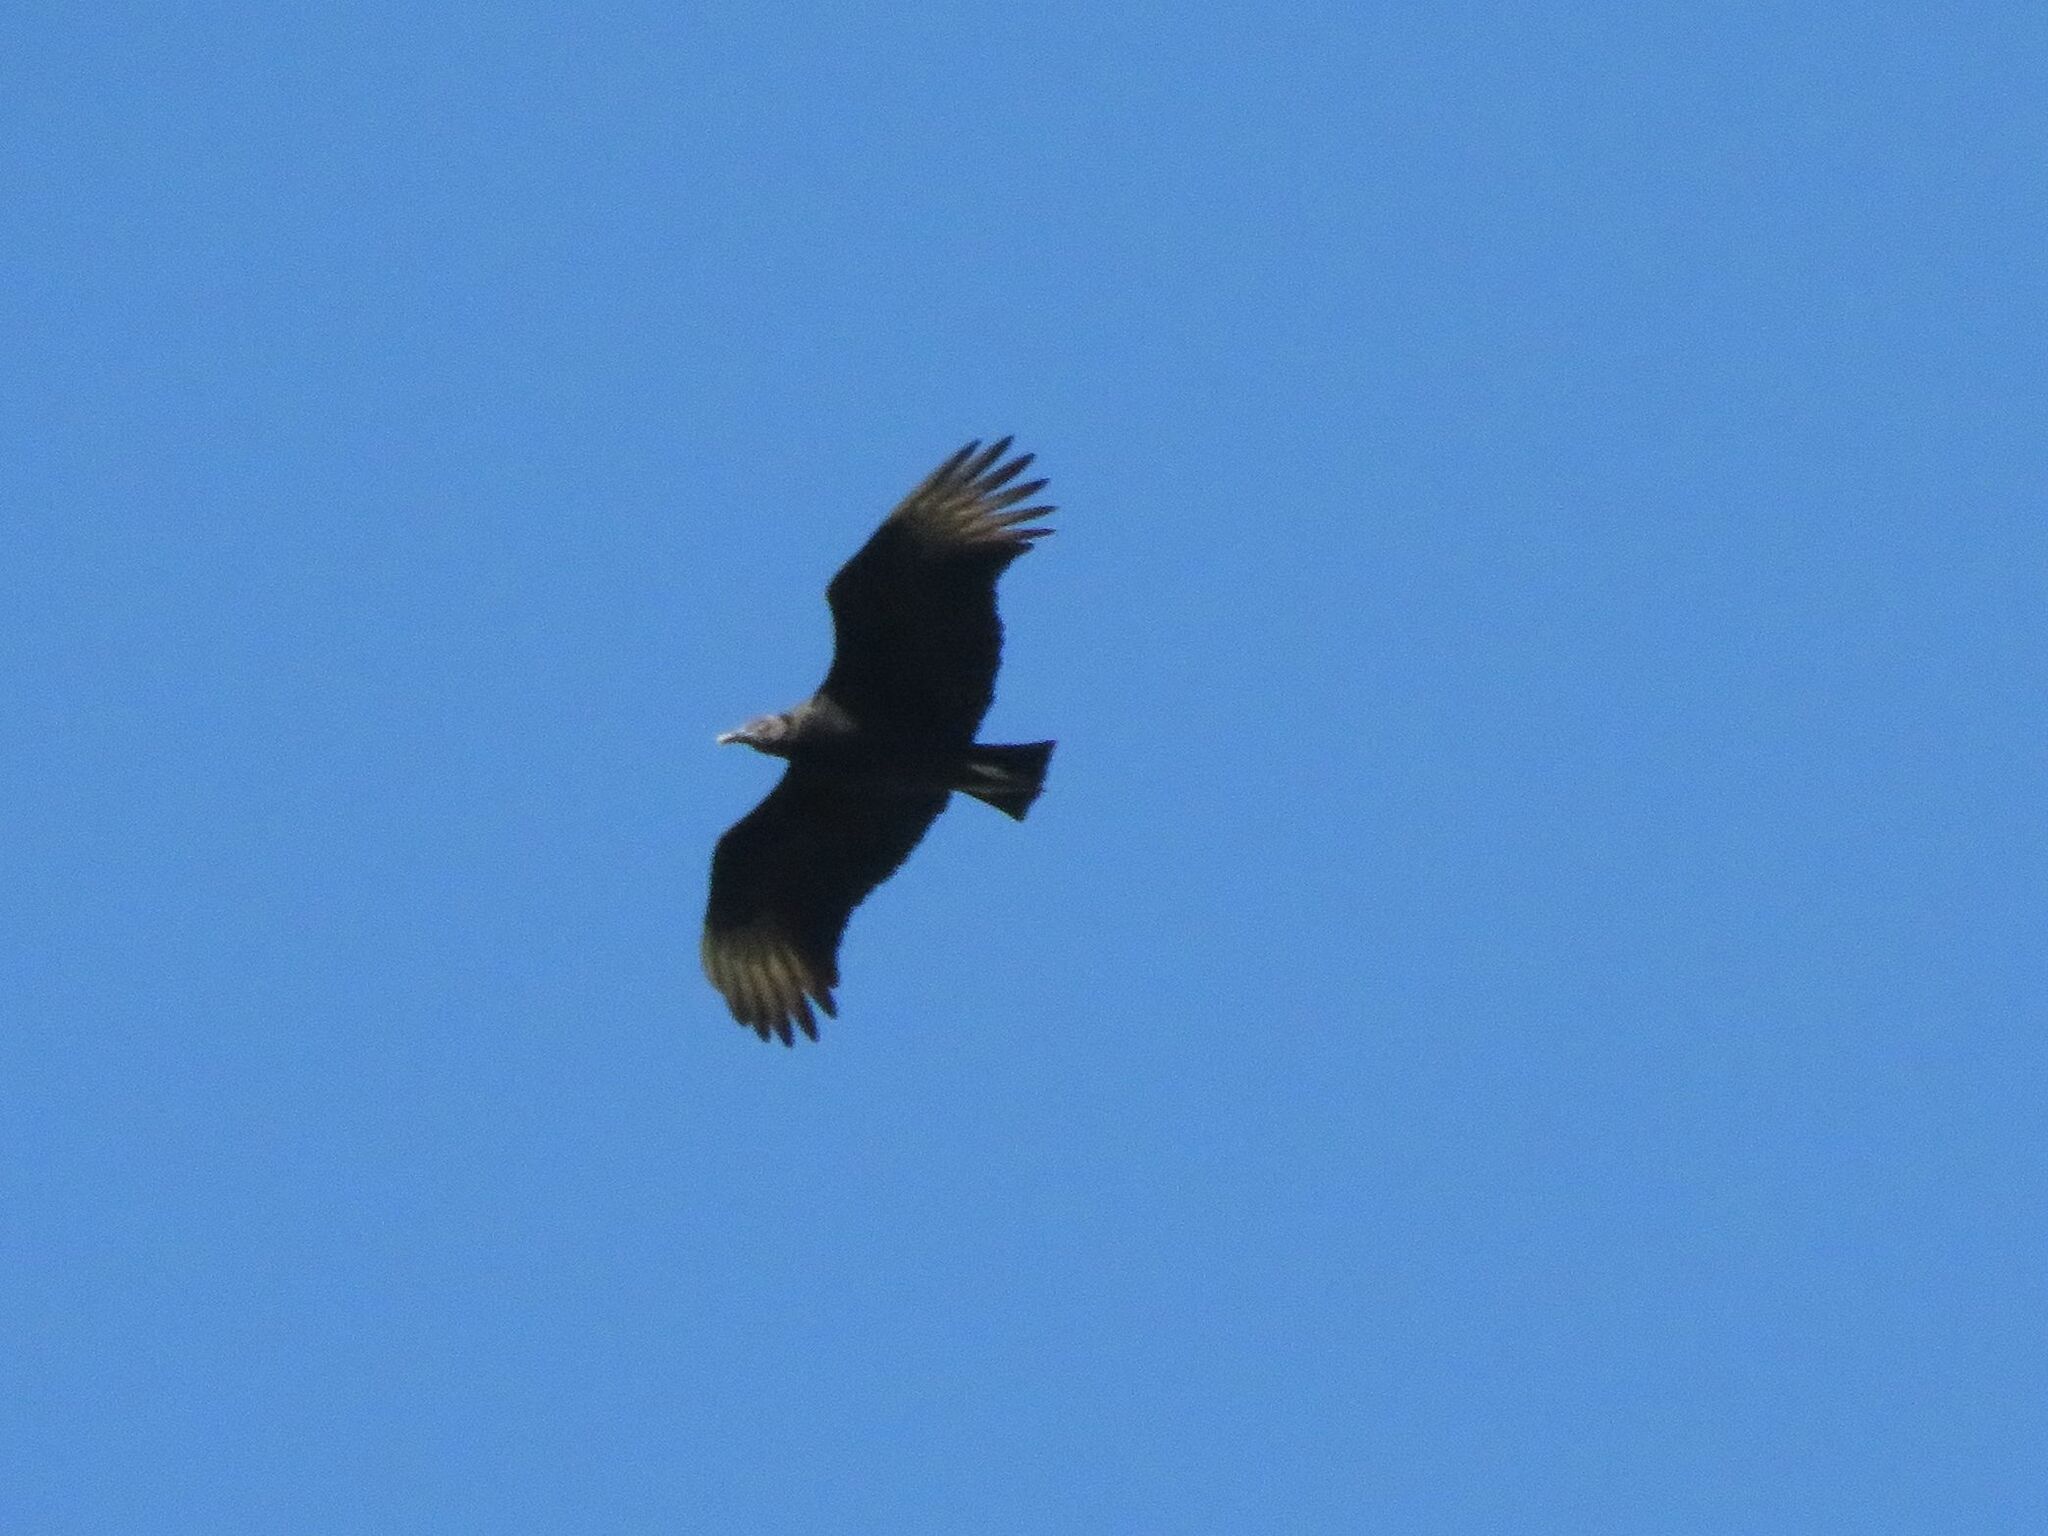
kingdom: Animalia
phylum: Chordata
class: Aves
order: Accipitriformes
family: Cathartidae
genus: Coragyps
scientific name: Coragyps atratus
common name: Black vulture
